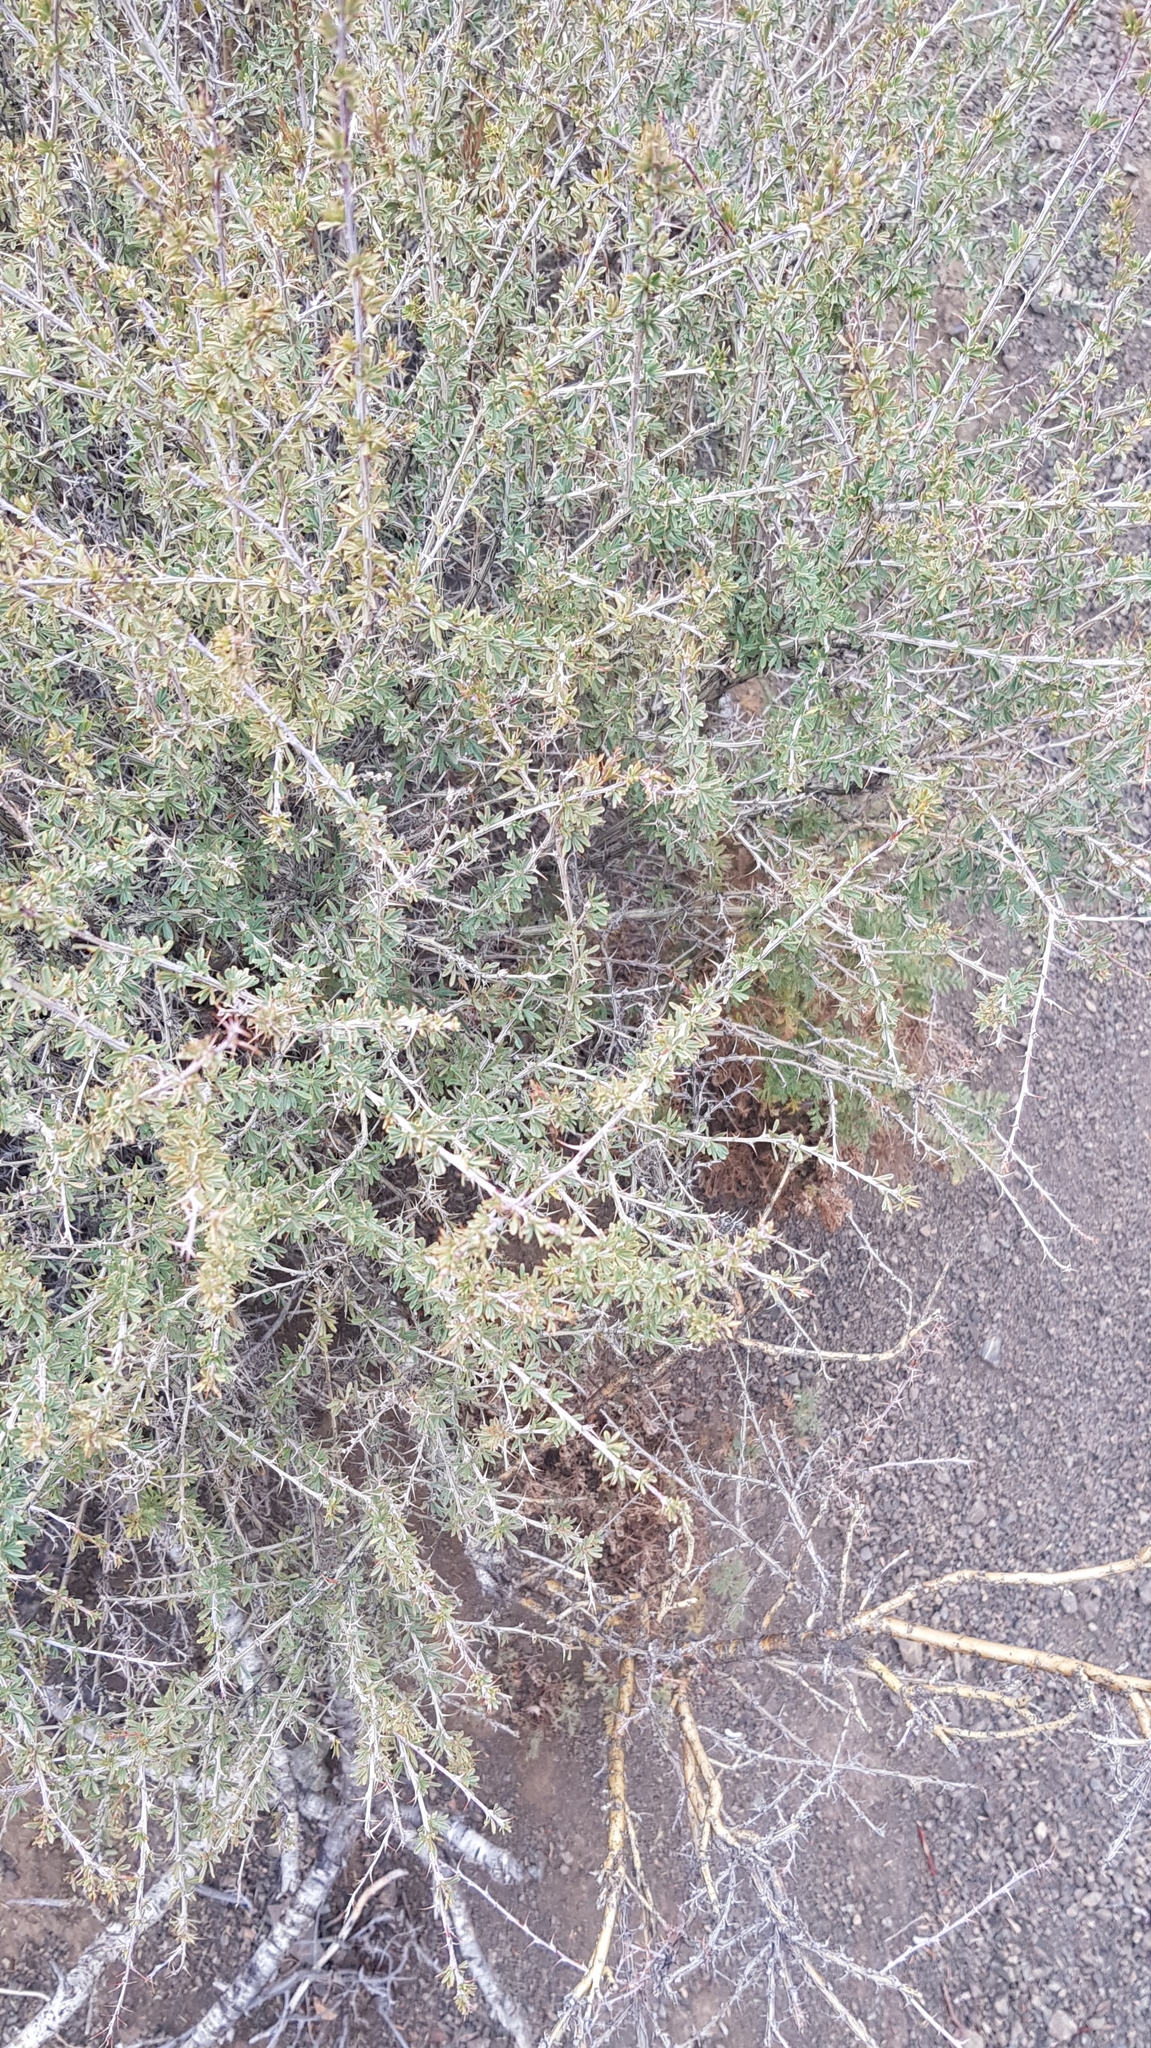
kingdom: Plantae
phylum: Tracheophyta
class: Magnoliopsida
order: Fabales
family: Fabaceae
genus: Caragana
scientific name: Caragana leucophloea
